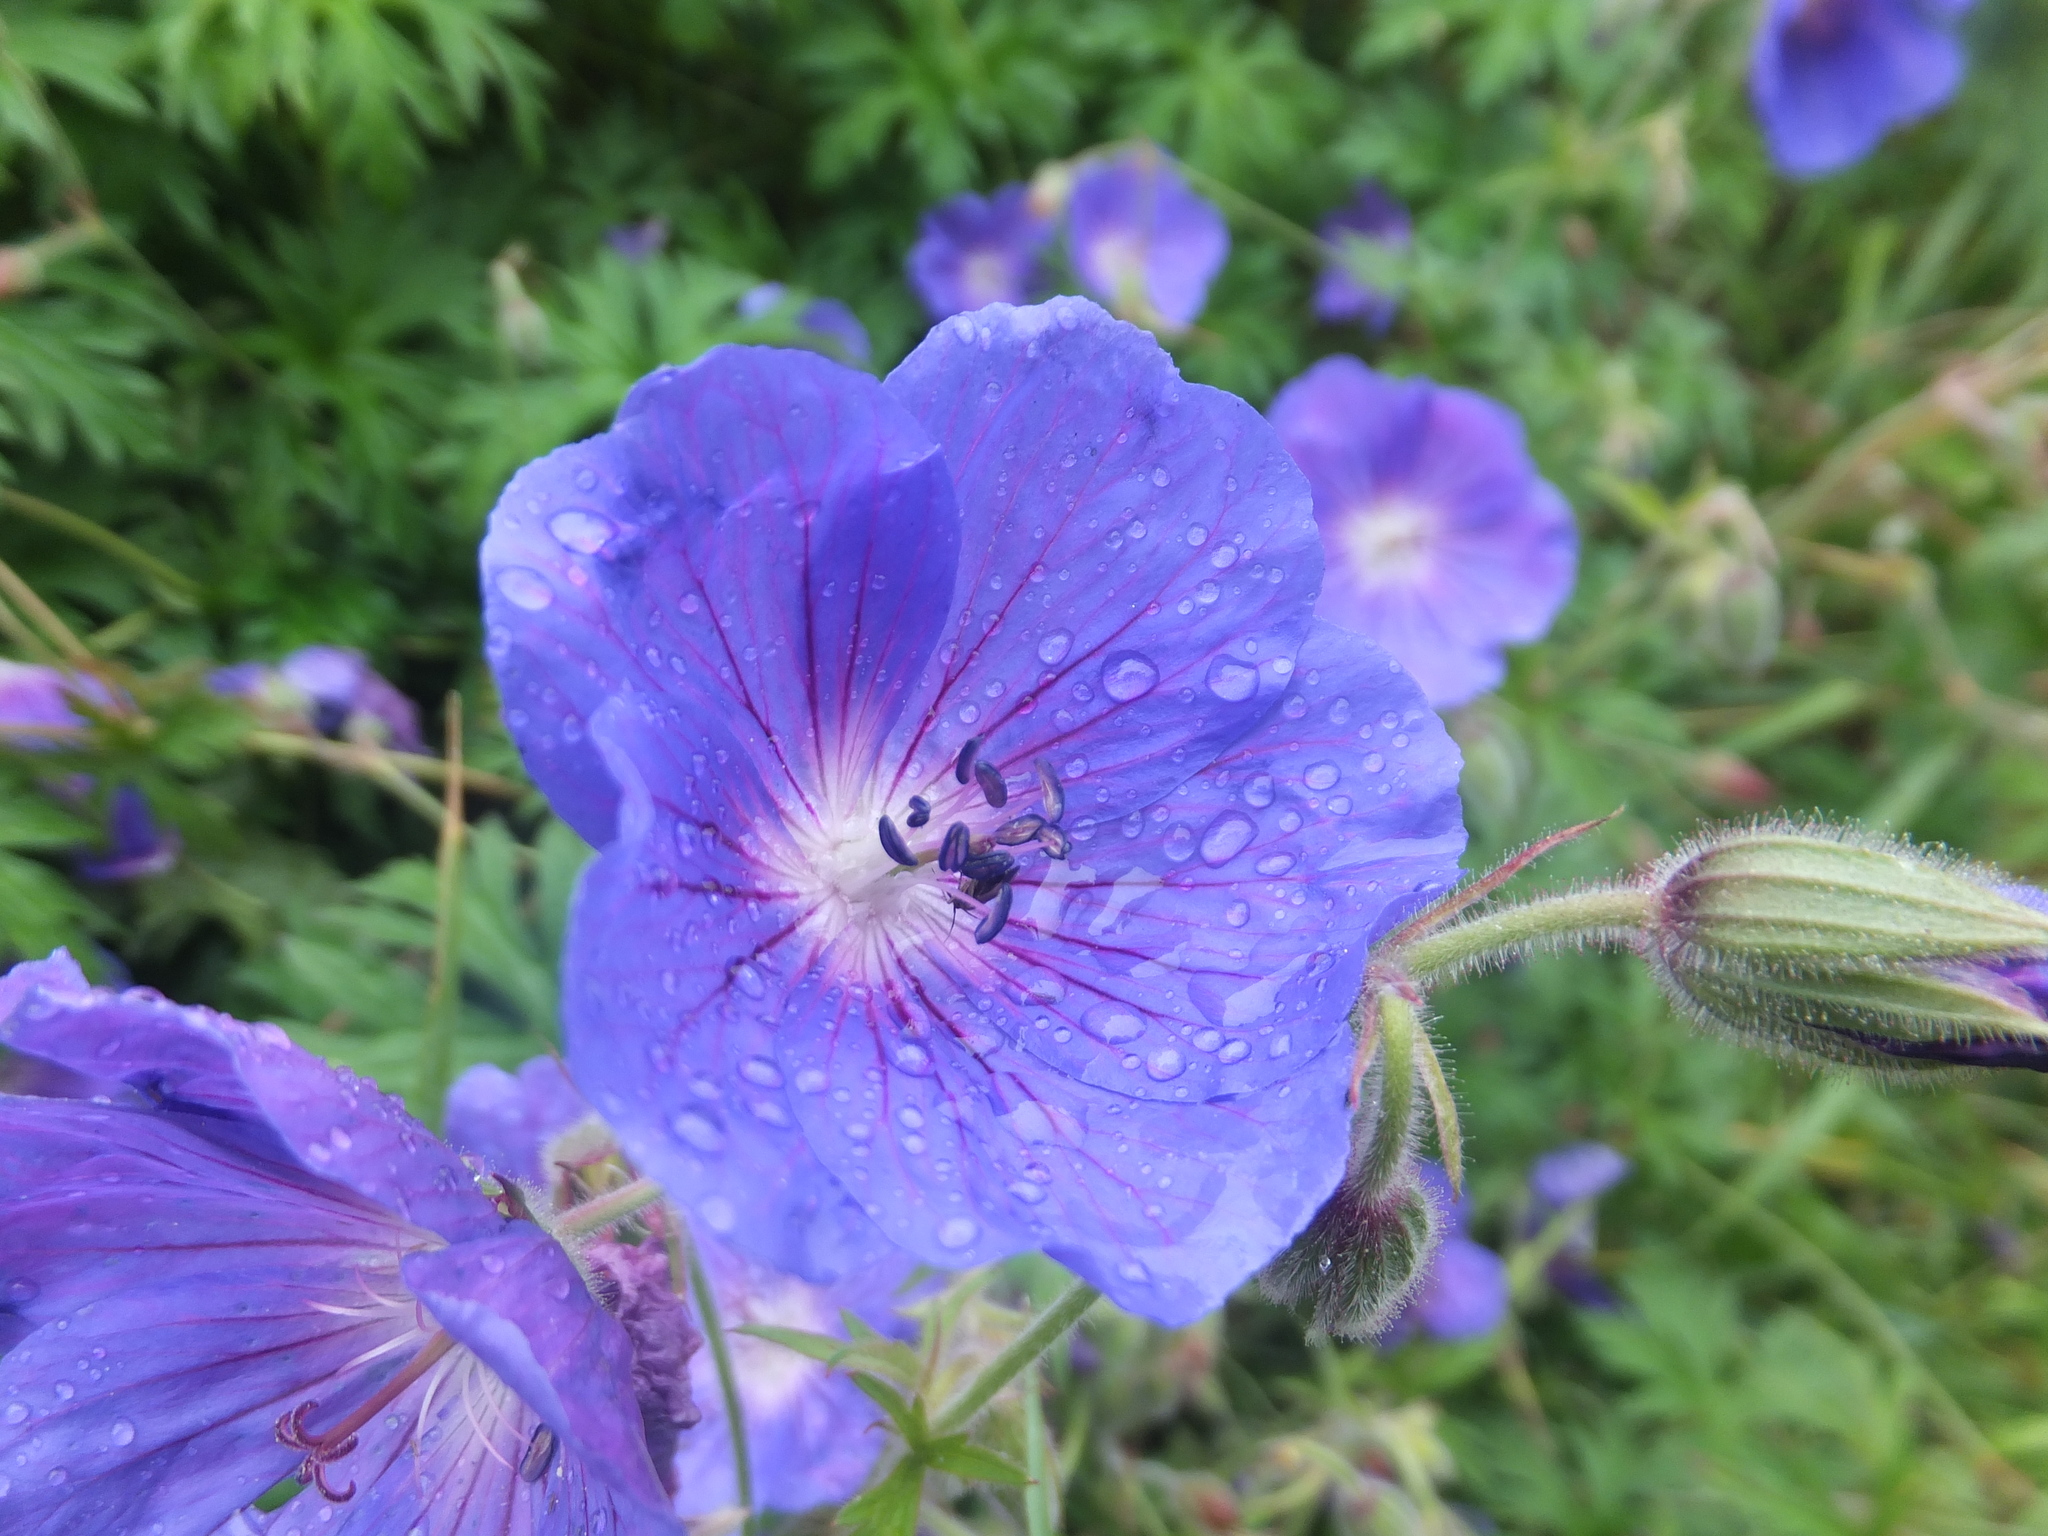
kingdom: Plantae
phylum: Tracheophyta
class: Magnoliopsida
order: Geraniales
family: Geraniaceae
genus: Geranium
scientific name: Geranium pratense
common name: Meadow crane's-bill
